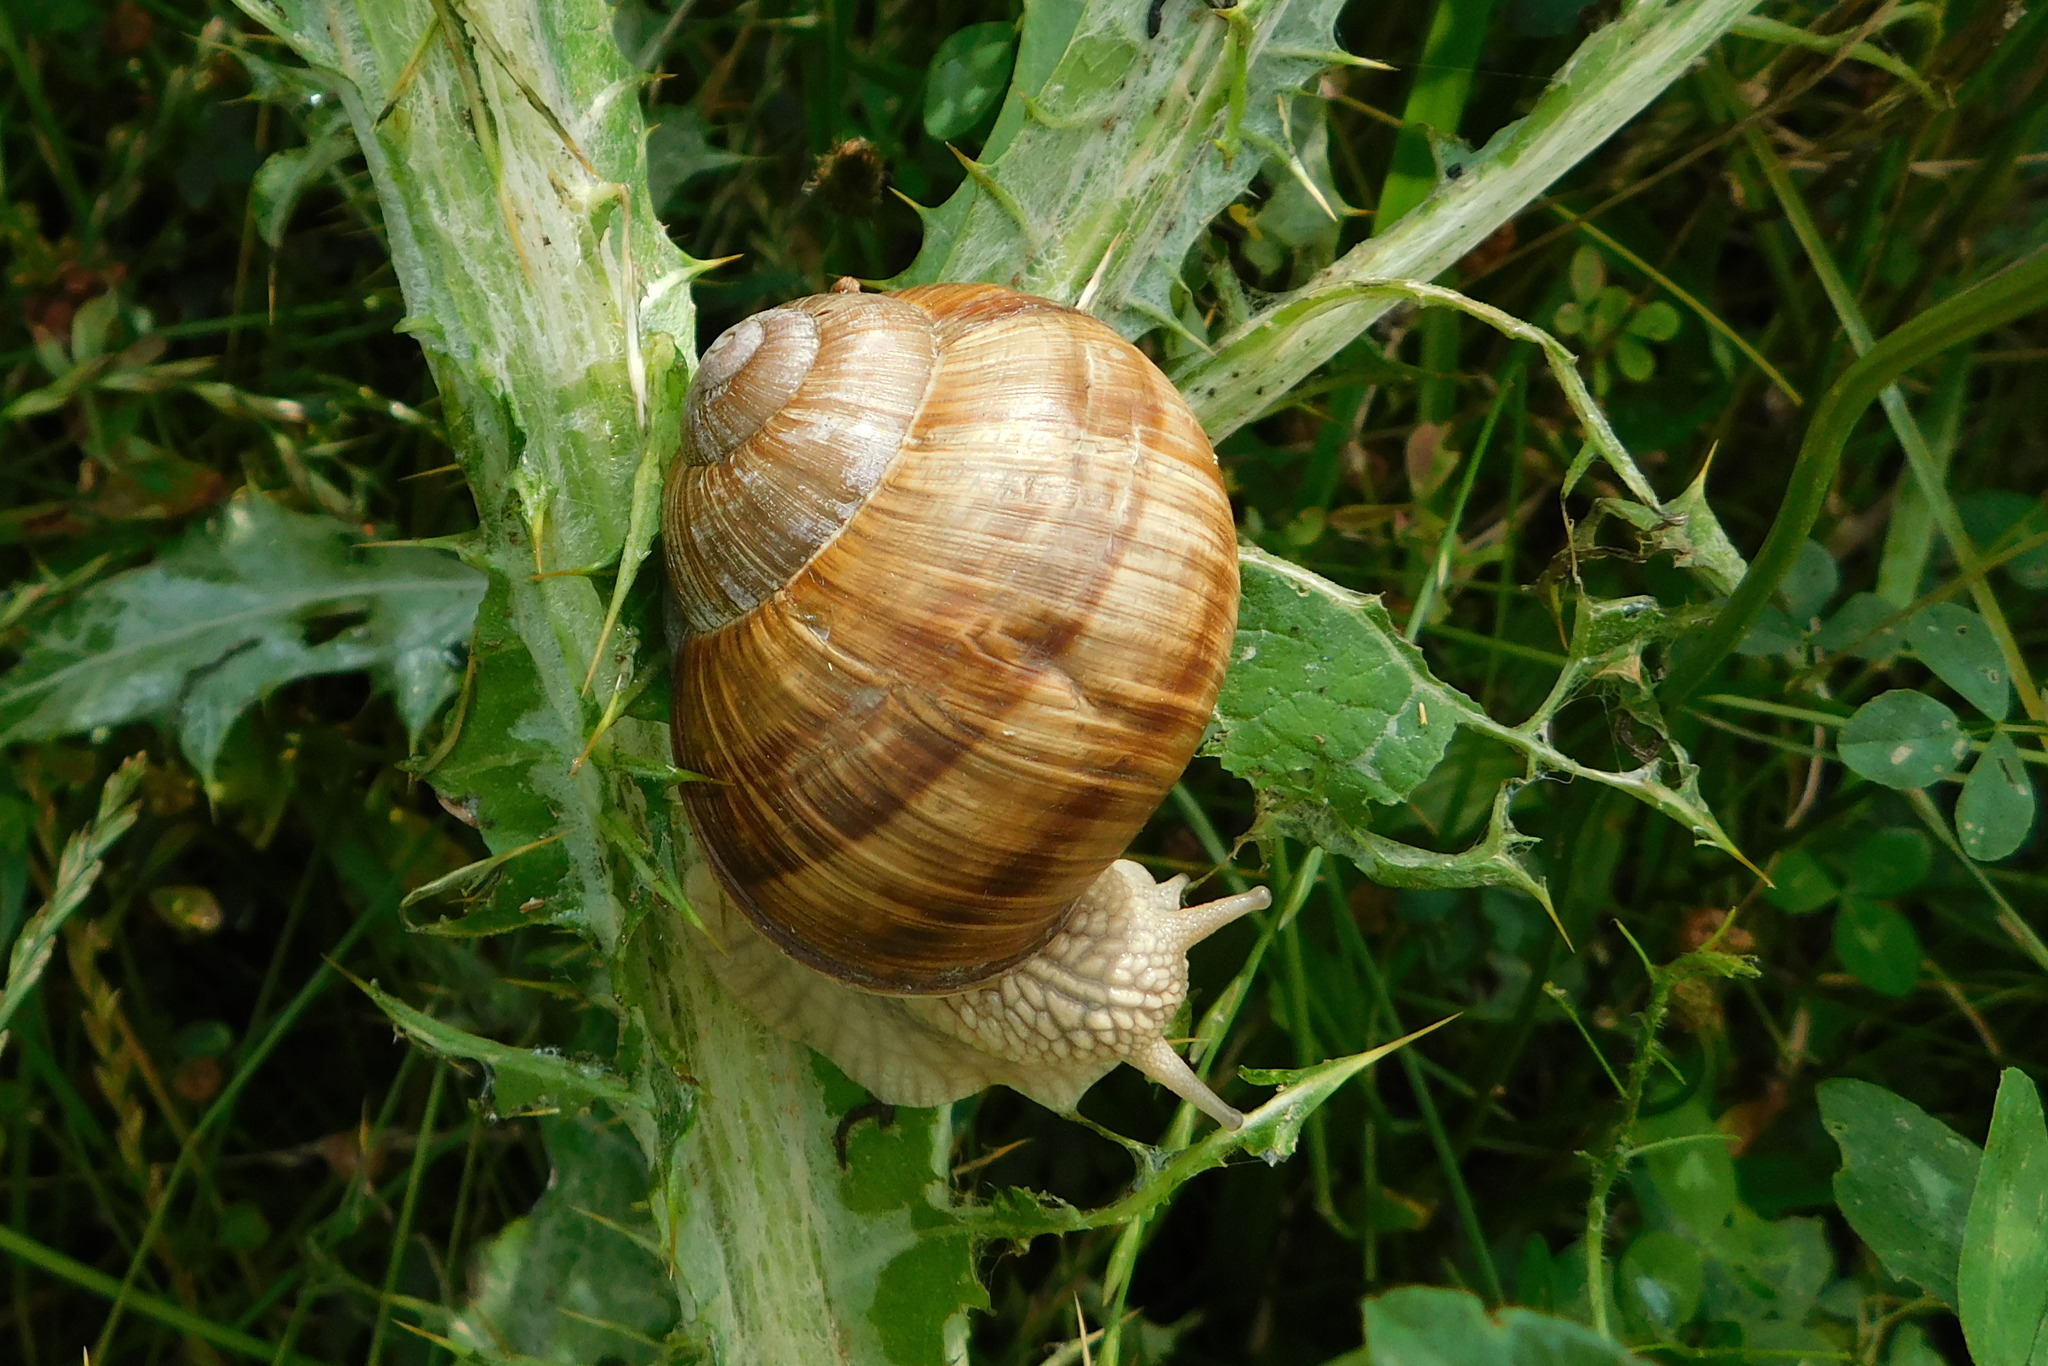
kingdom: Animalia
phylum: Mollusca
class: Gastropoda
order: Stylommatophora
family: Helicidae
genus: Helix
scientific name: Helix pomatia
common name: Roman snail
